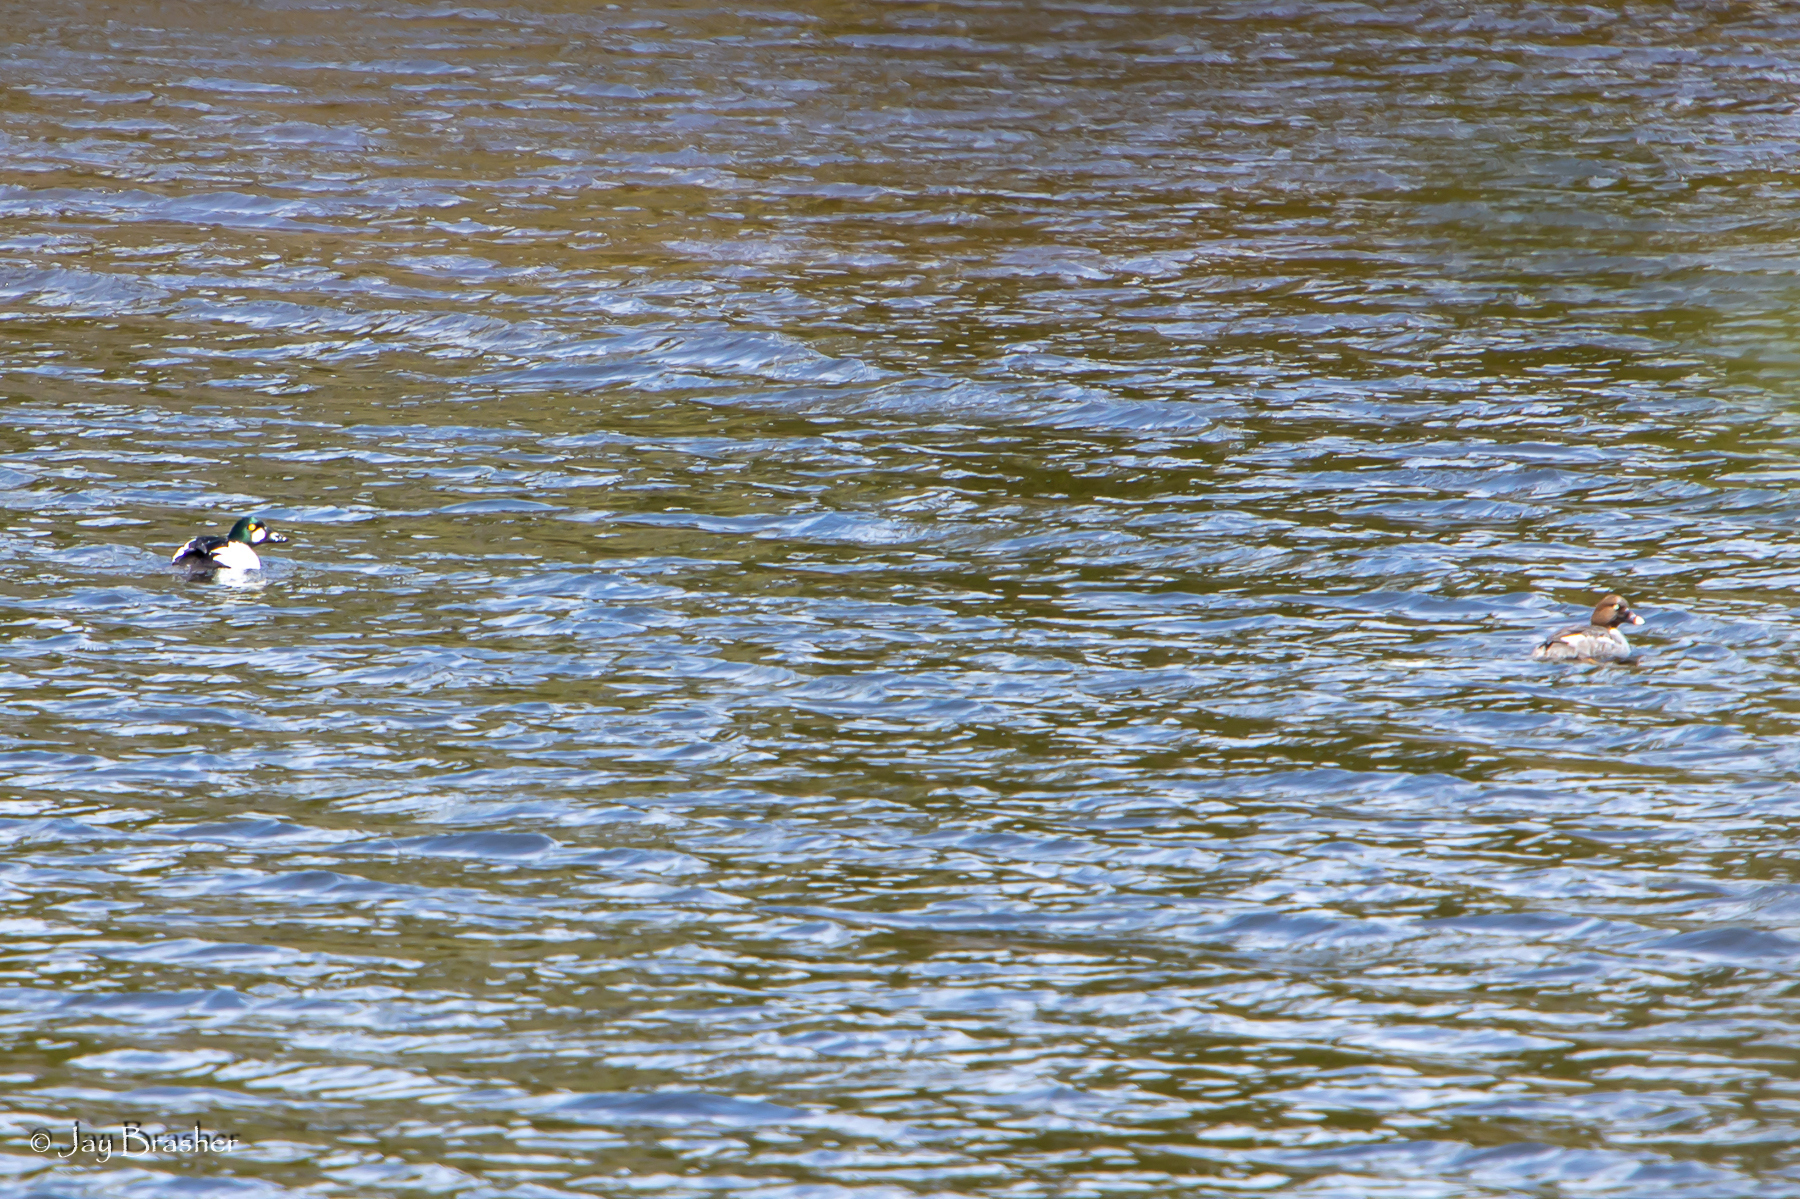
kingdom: Animalia
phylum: Chordata
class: Aves
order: Anseriformes
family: Anatidae
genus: Bucephala
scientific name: Bucephala clangula
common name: Common goldeneye
